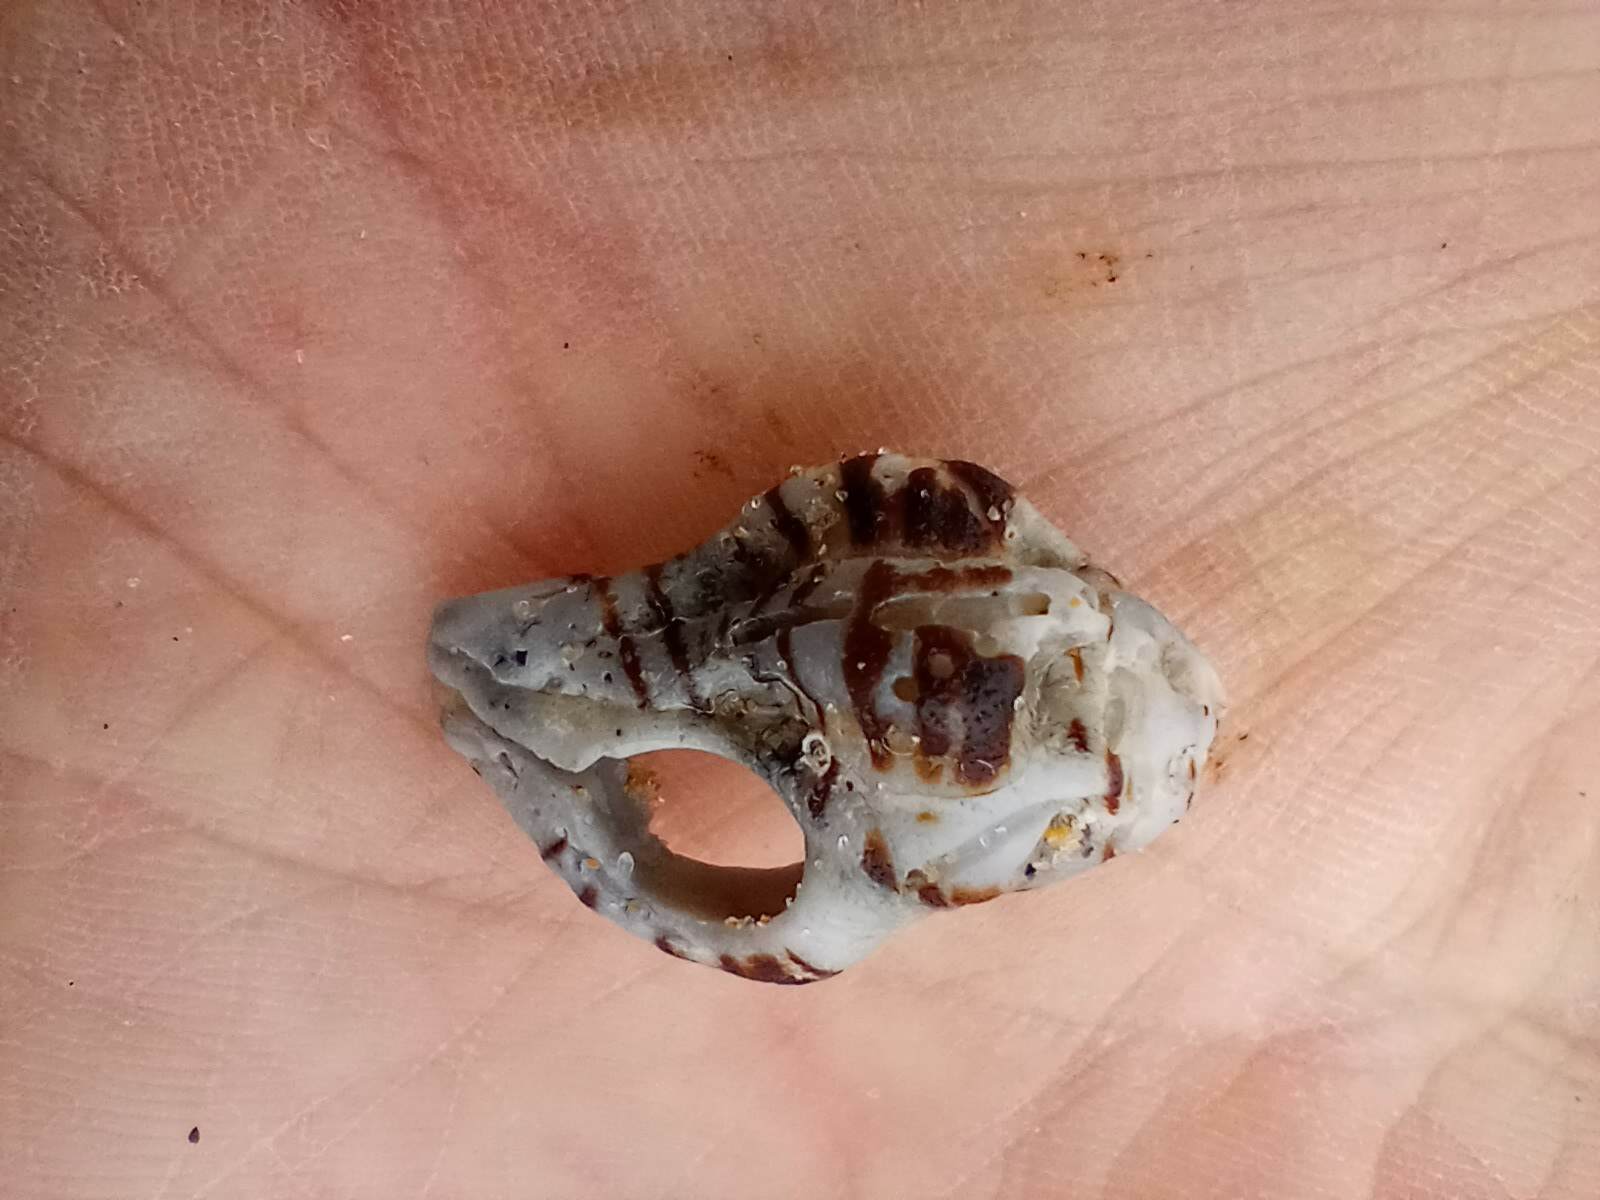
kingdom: Animalia
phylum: Mollusca
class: Gastropoda
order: Neogastropoda
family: Muricidae
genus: Maxwellia
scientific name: Maxwellia gemma
